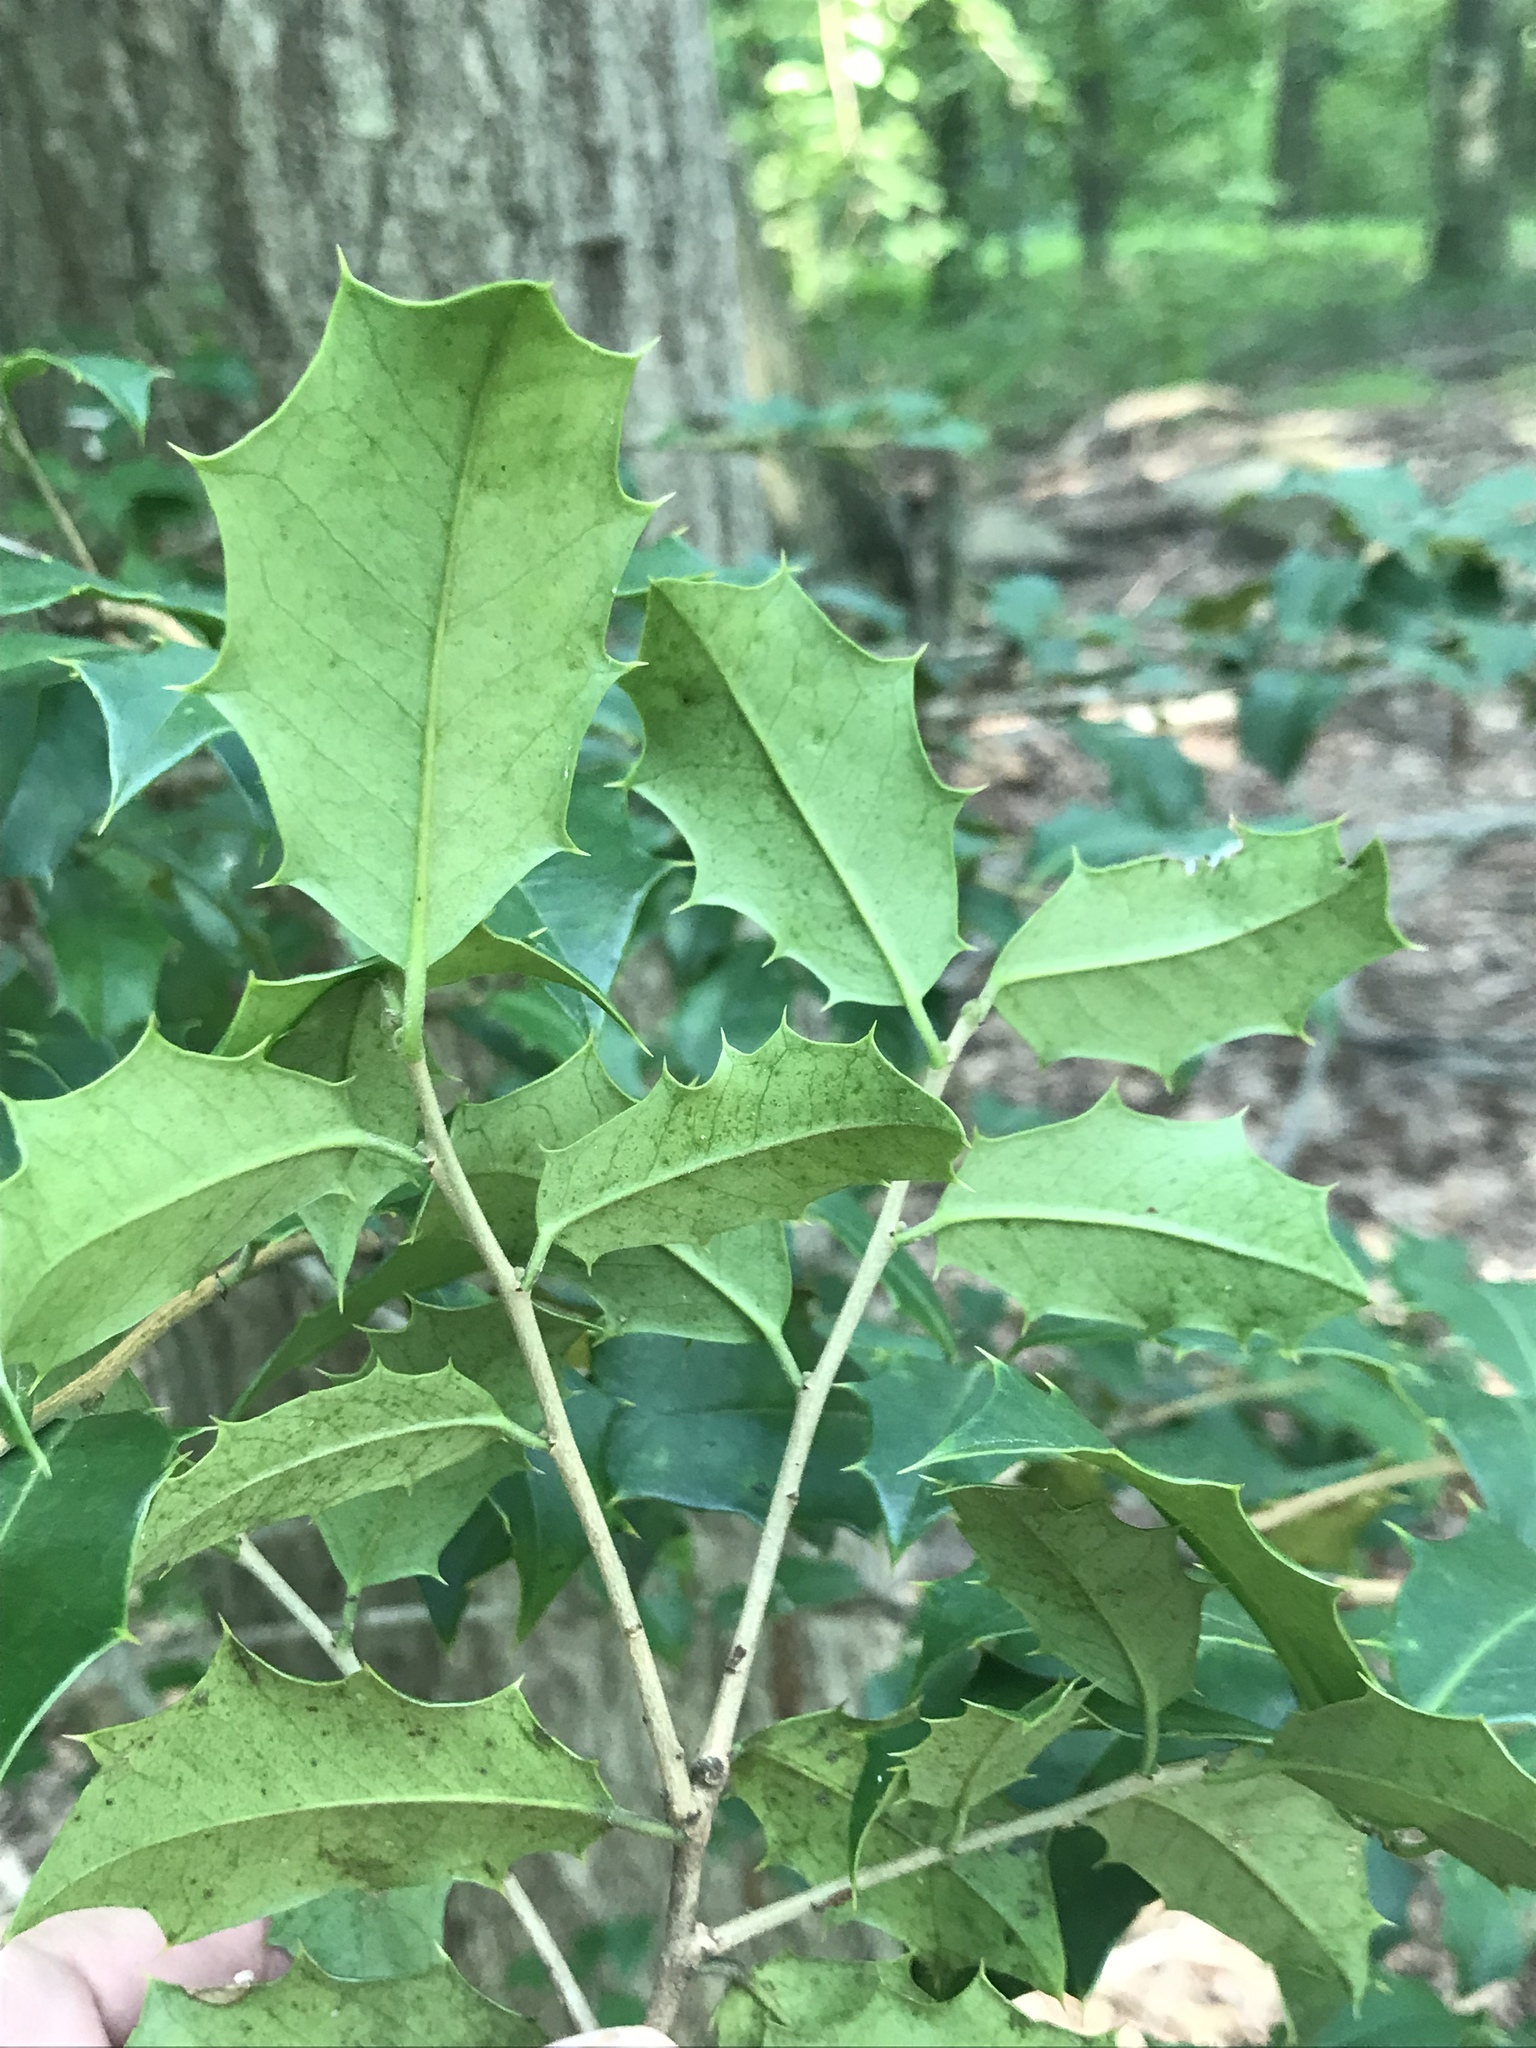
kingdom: Plantae
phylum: Tracheophyta
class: Magnoliopsida
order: Aquifoliales
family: Aquifoliaceae
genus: Ilex
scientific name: Ilex opaca
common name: American holly
